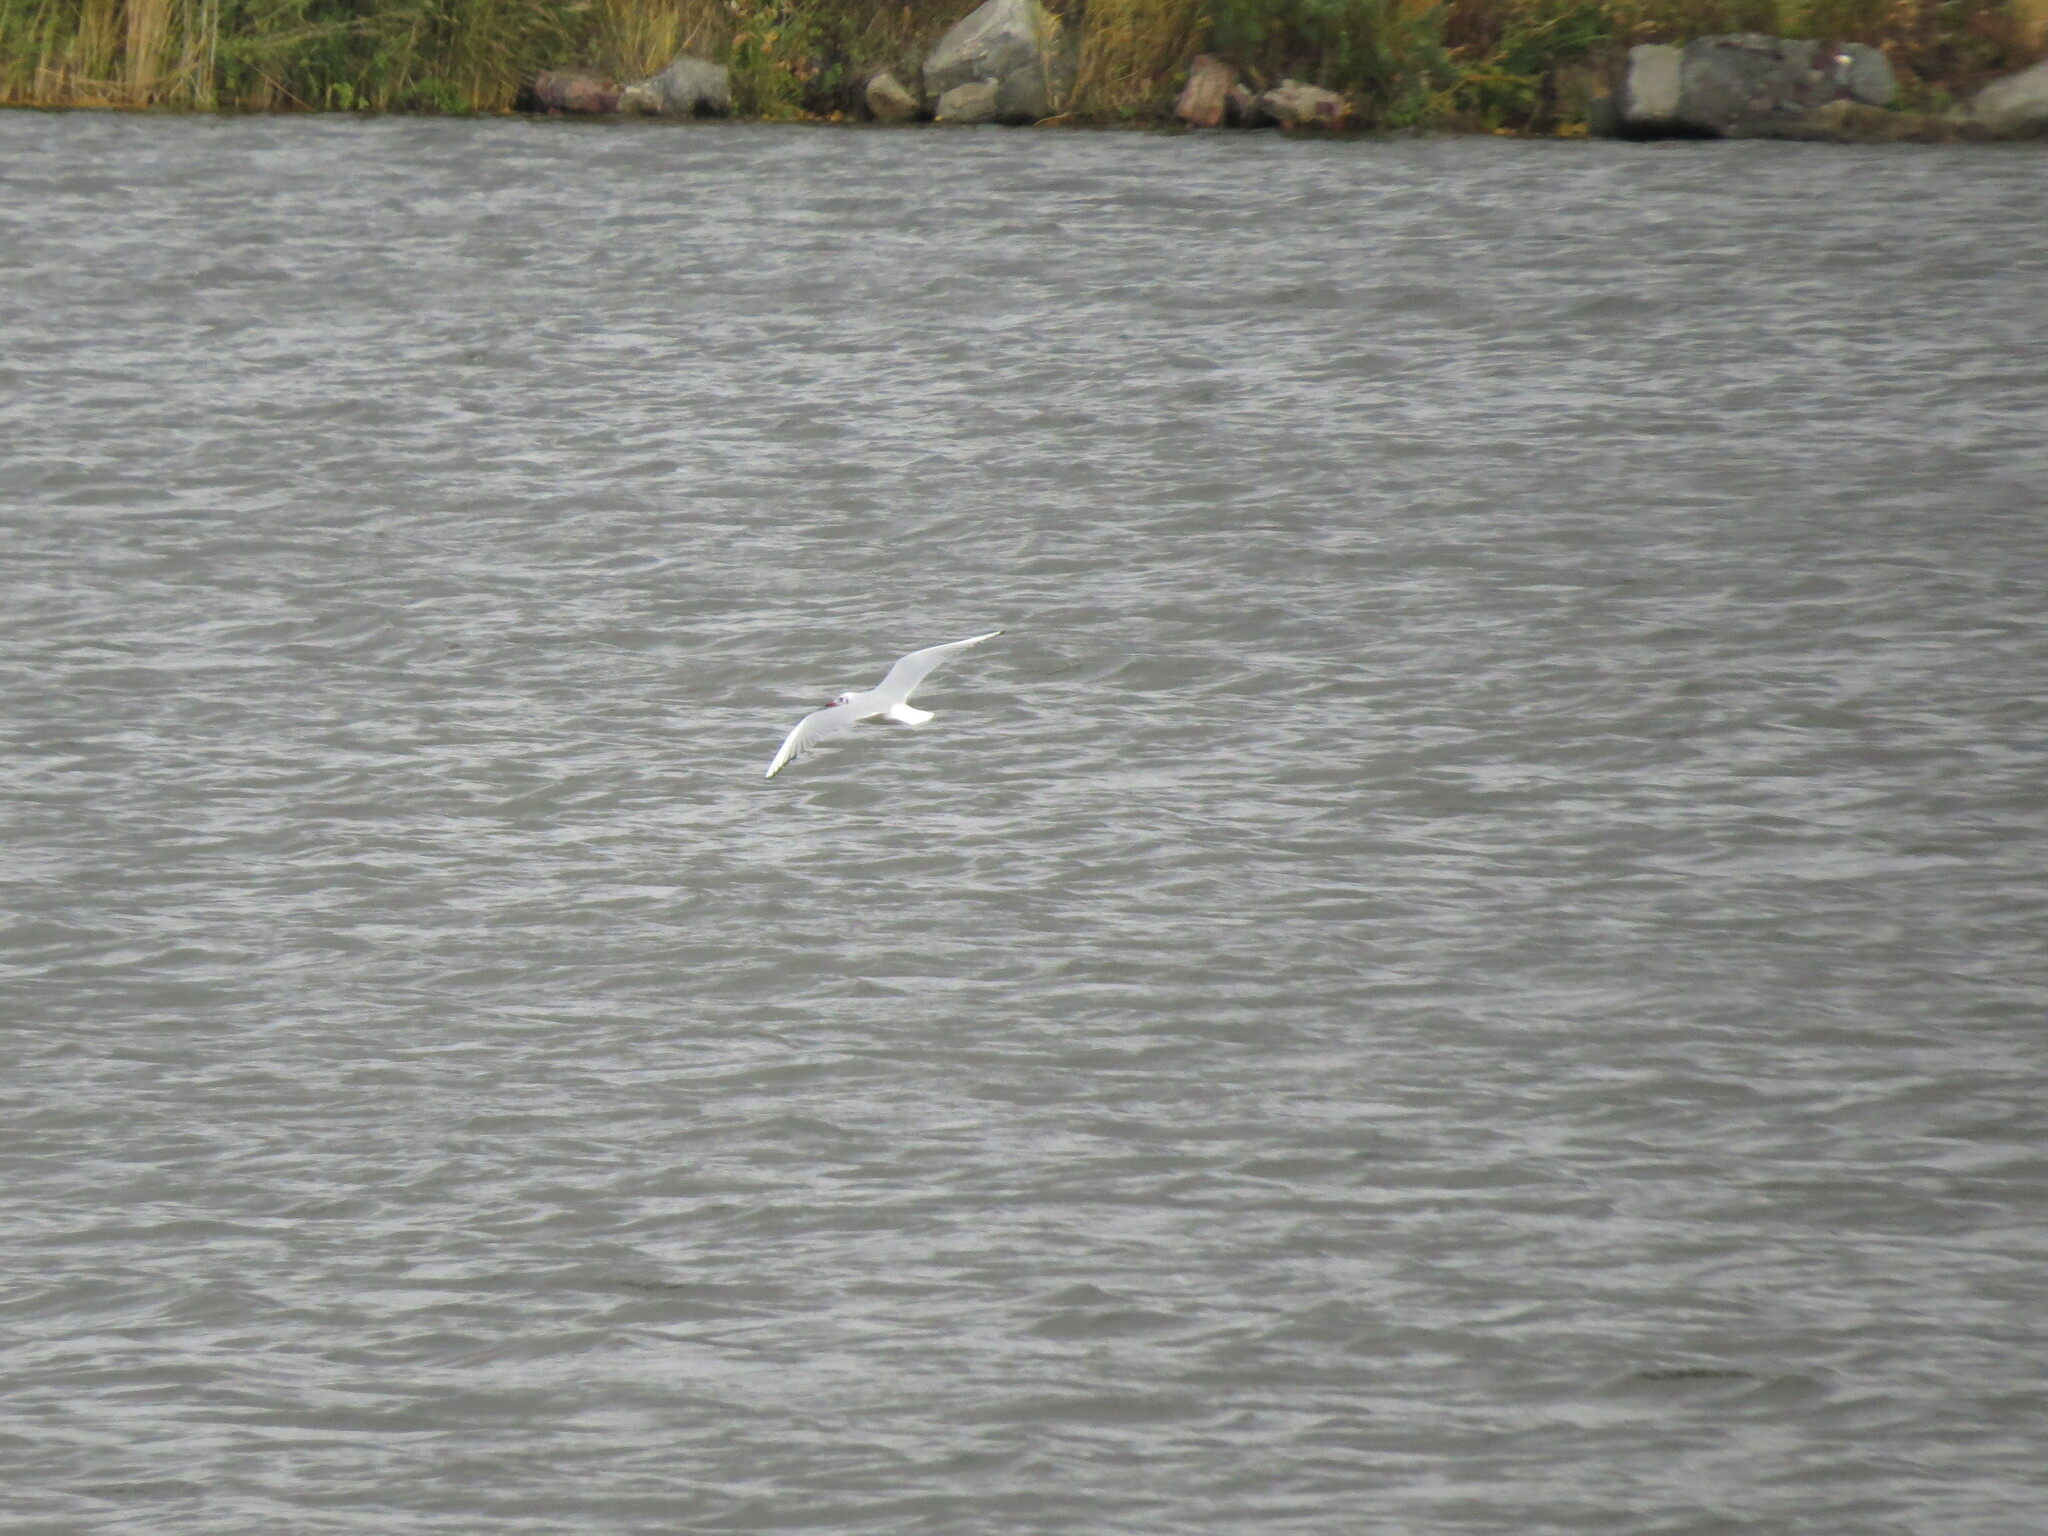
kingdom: Animalia
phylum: Chordata
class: Aves
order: Charadriiformes
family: Laridae
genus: Chroicocephalus
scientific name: Chroicocephalus ridibundus
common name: Black-headed gull
